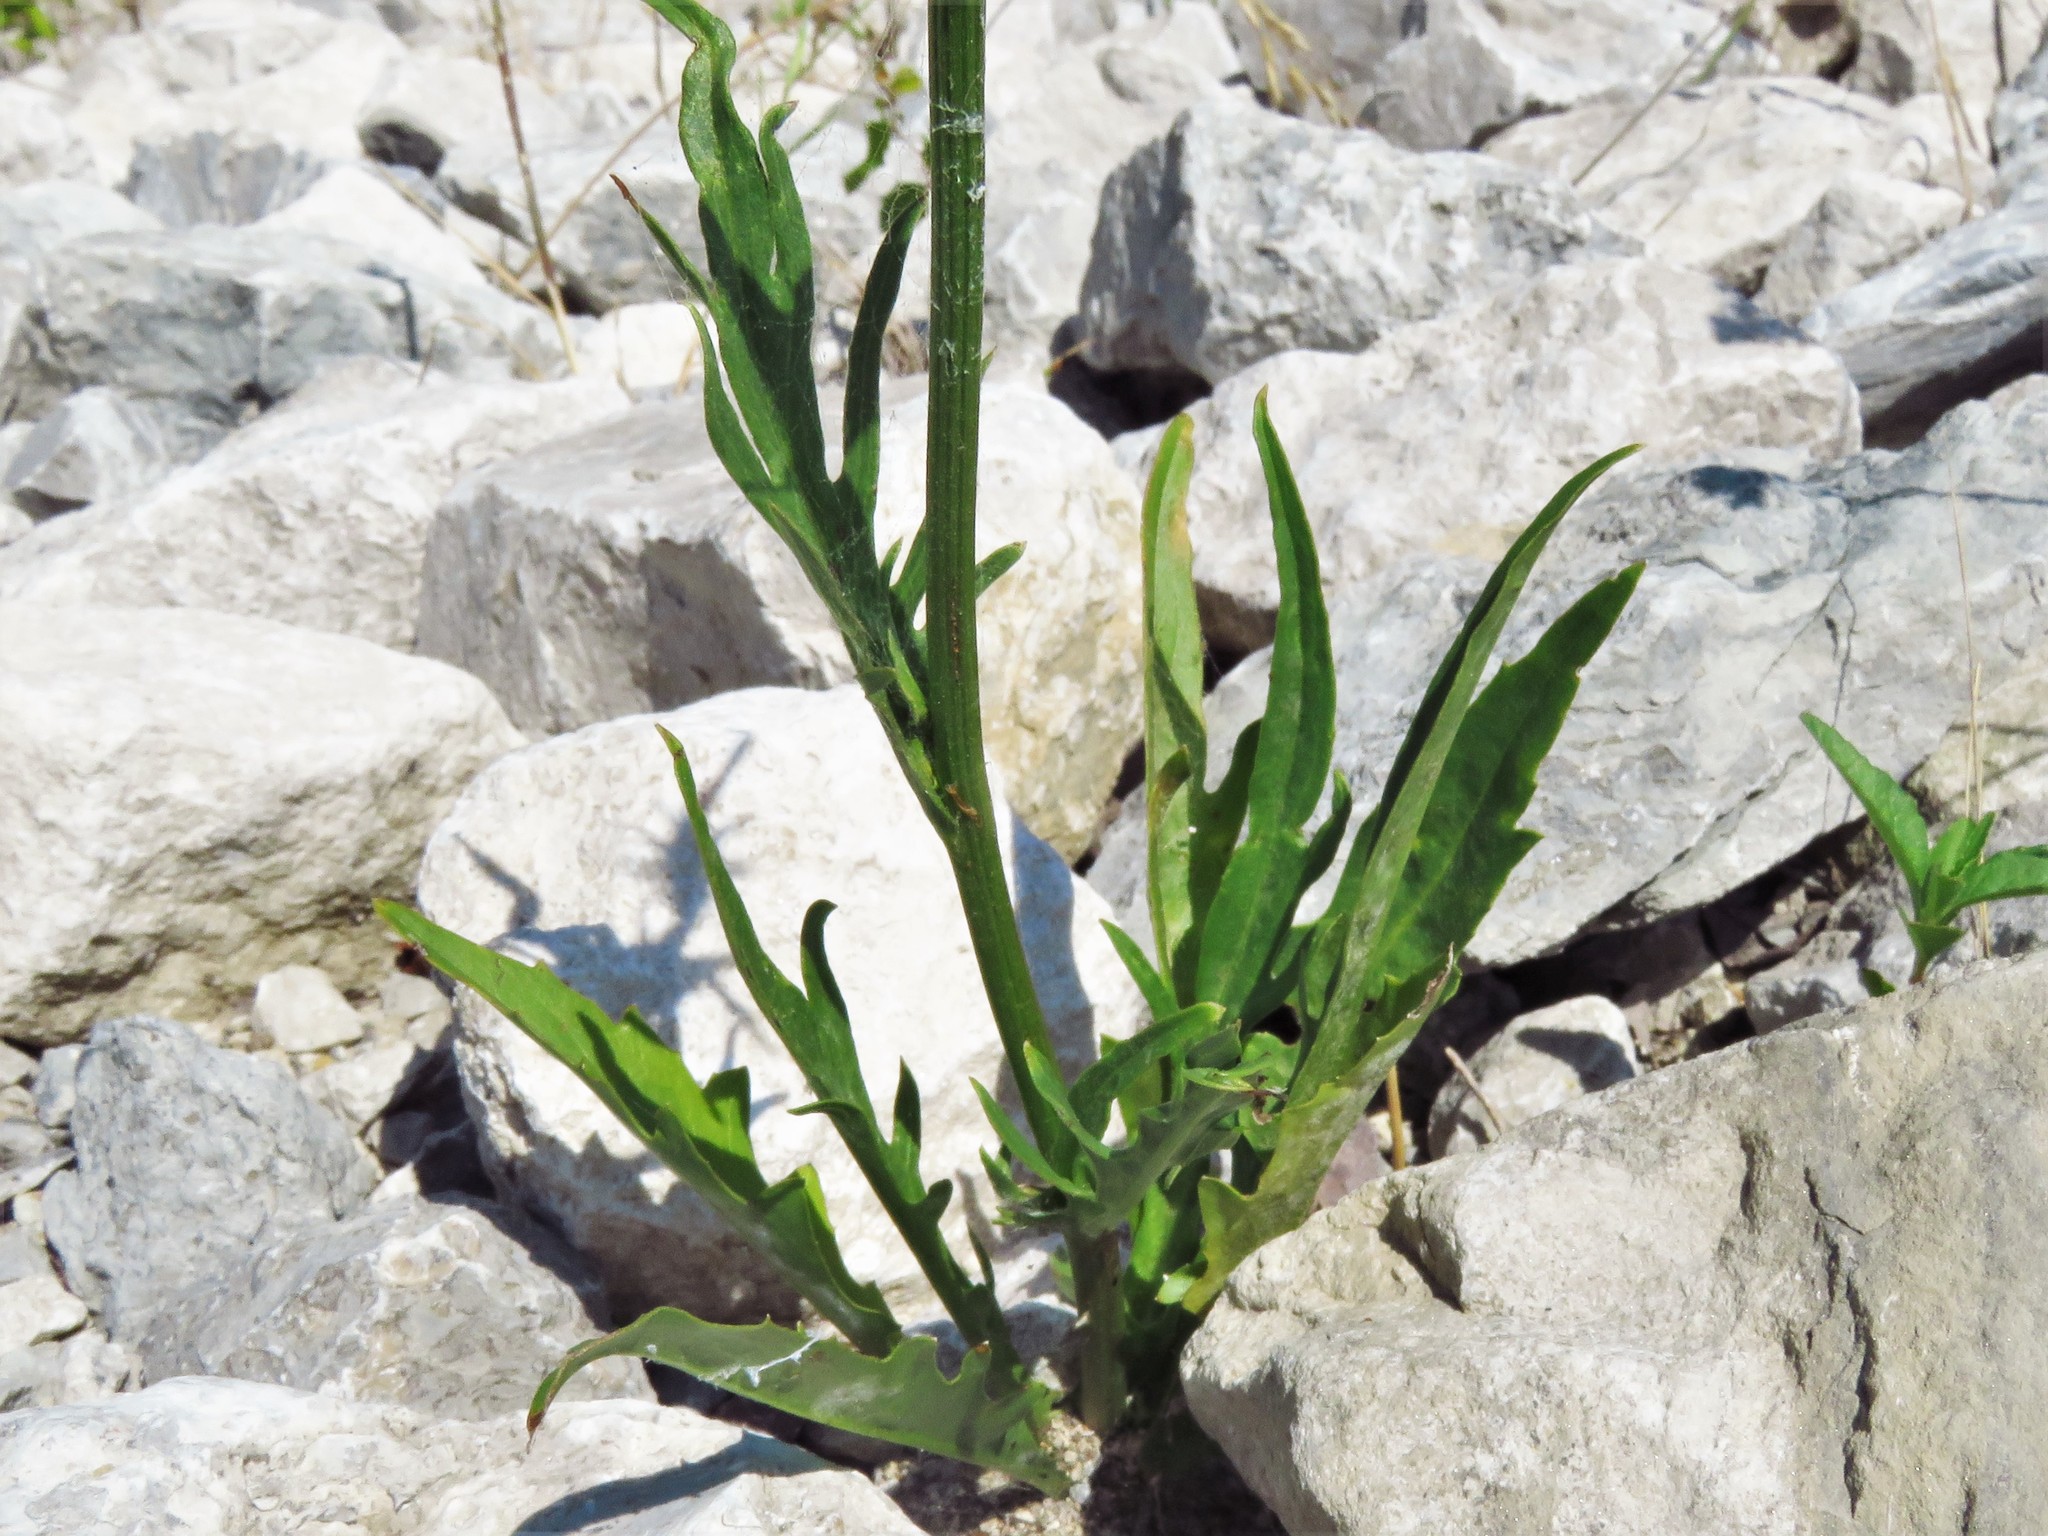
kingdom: Plantae
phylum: Tracheophyta
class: Magnoliopsida
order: Asterales
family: Asteraceae
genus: Pyrrhopappus
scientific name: Pyrrhopappus pauciflorus
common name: Texas false dandelion
